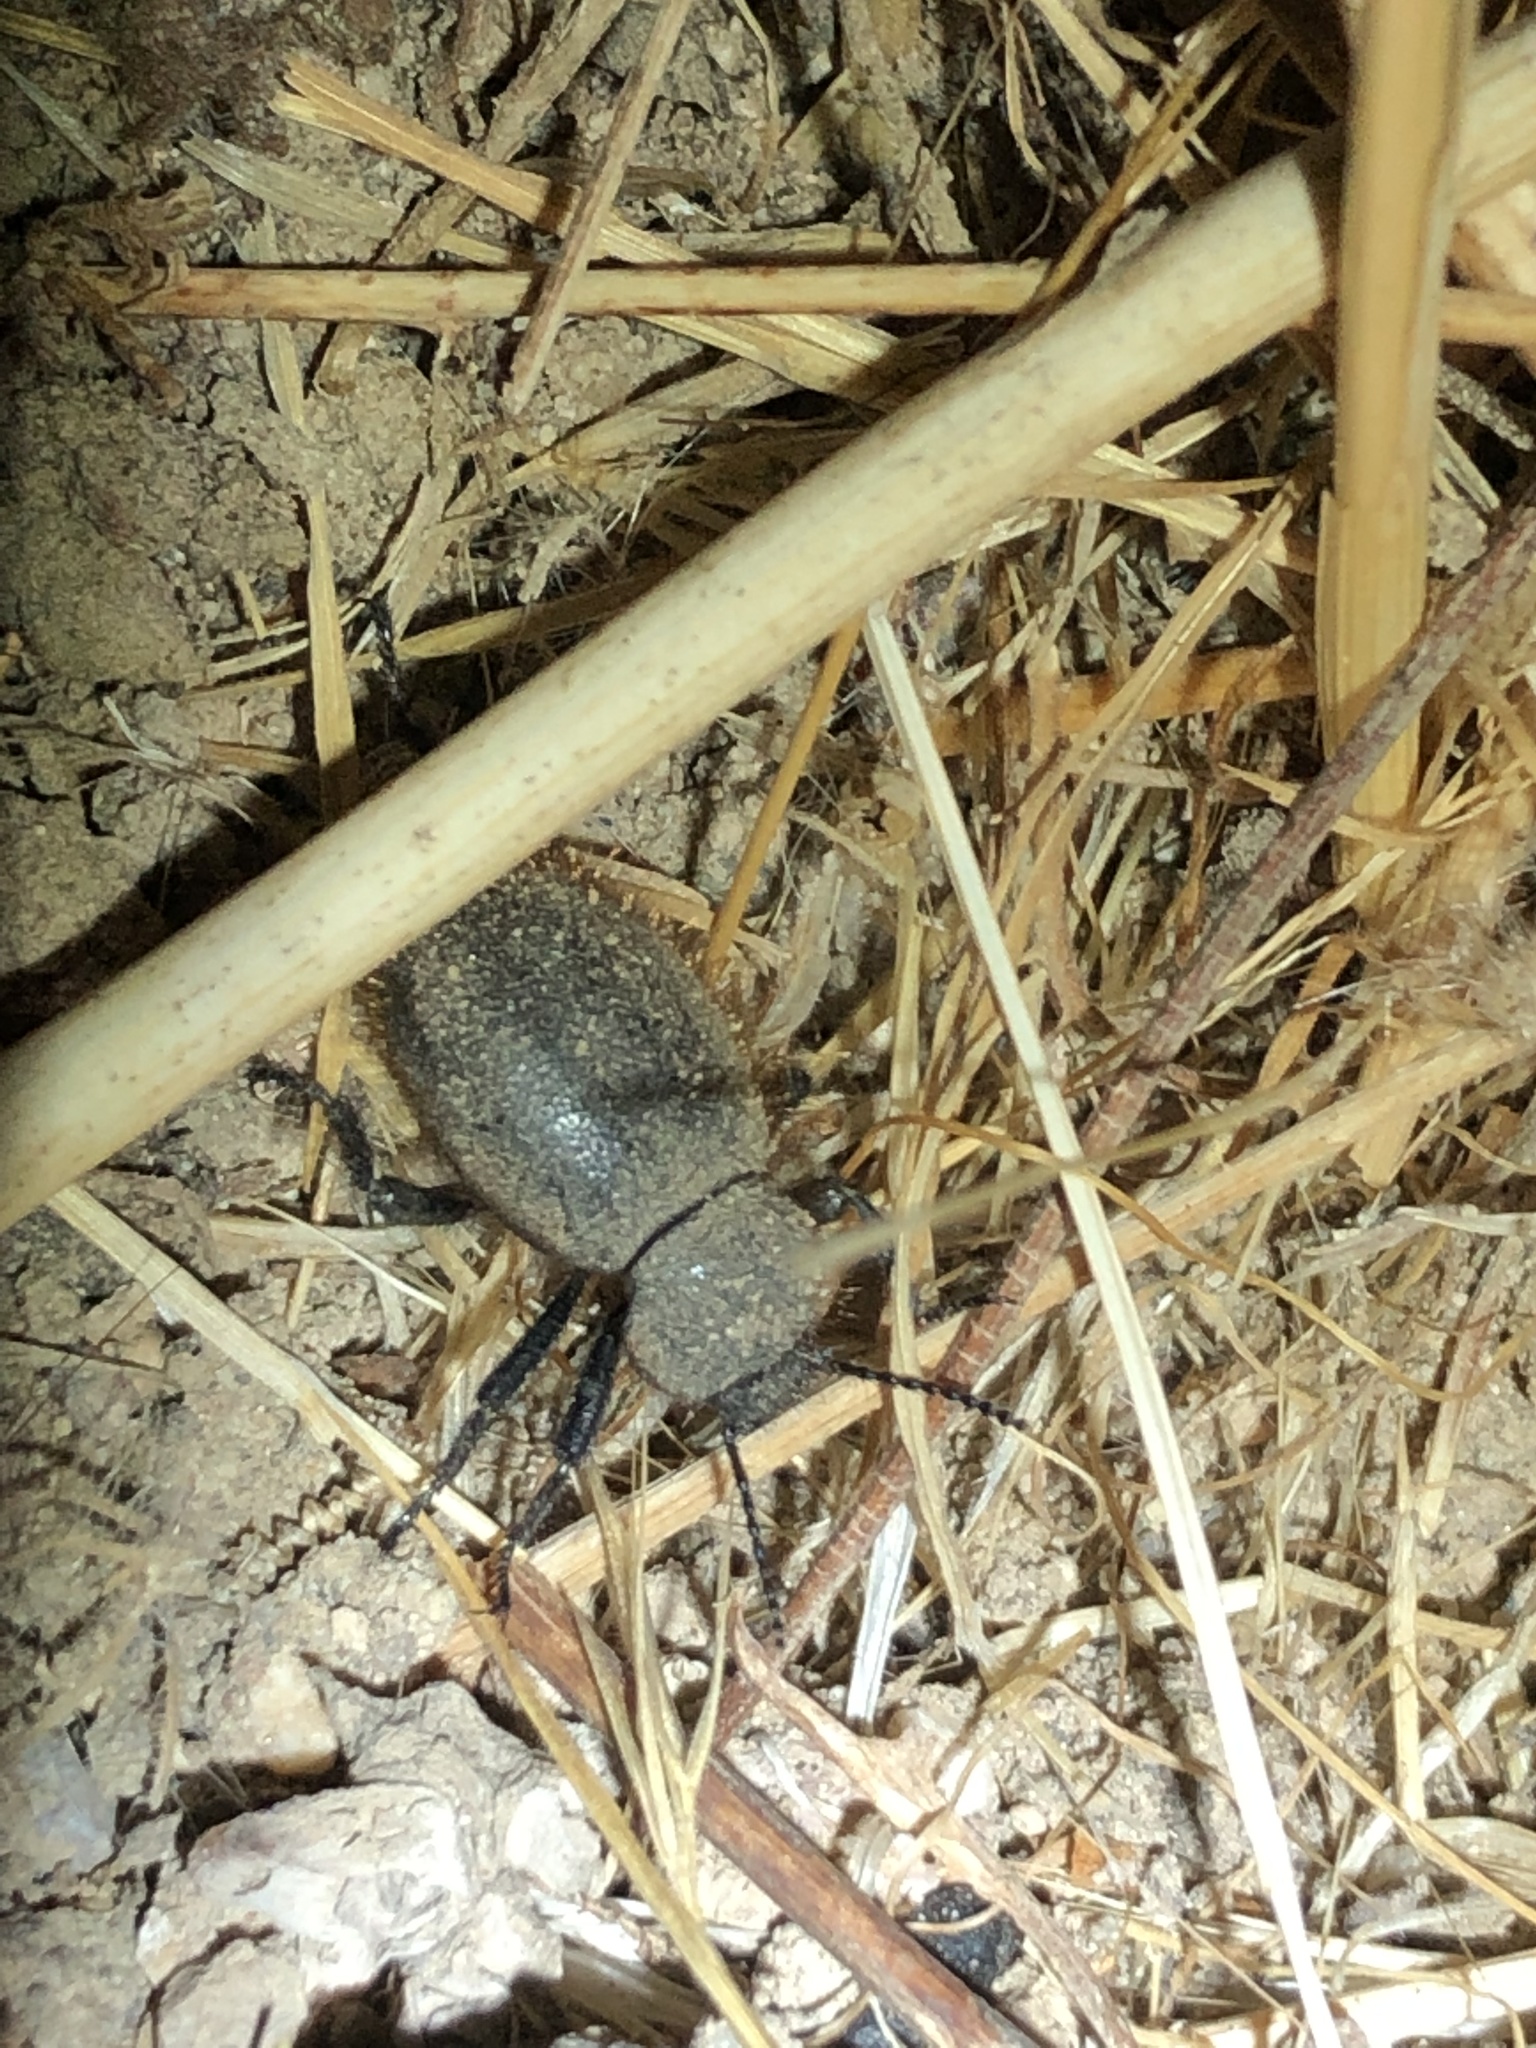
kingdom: Animalia
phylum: Arthropoda
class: Insecta
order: Coleoptera
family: Tenebrionidae
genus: Eleodes
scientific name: Eleodes osculans
